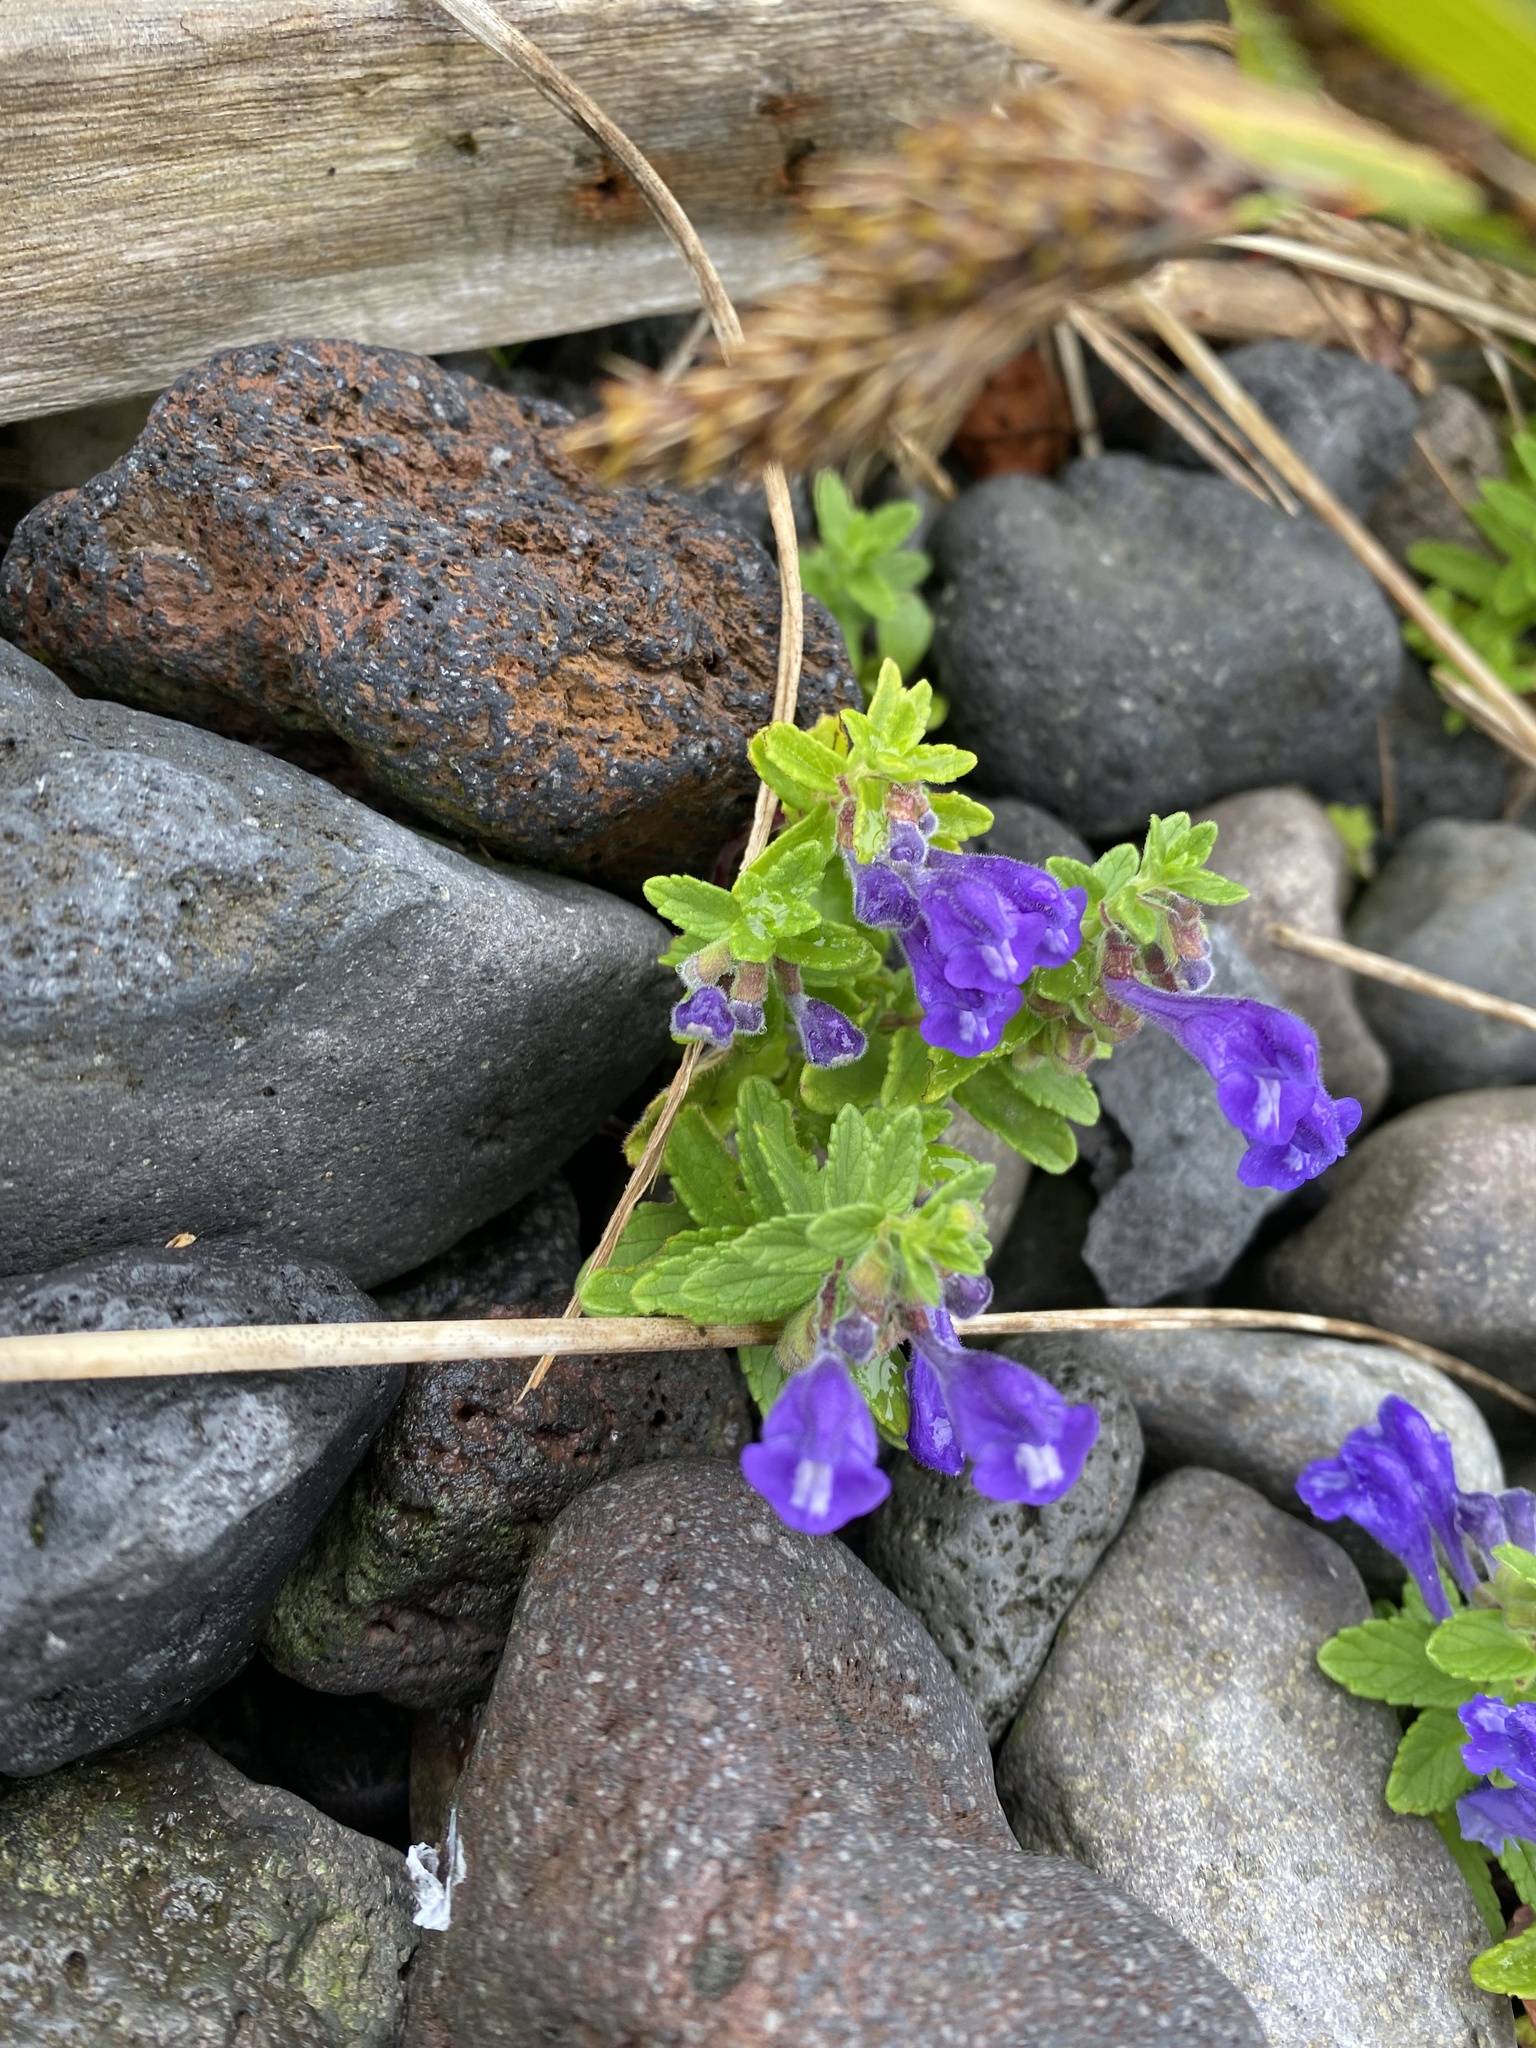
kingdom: Plantae
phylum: Tracheophyta
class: Magnoliopsida
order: Lamiales
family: Lamiaceae
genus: Scutellaria
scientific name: Scutellaria strigillosa
